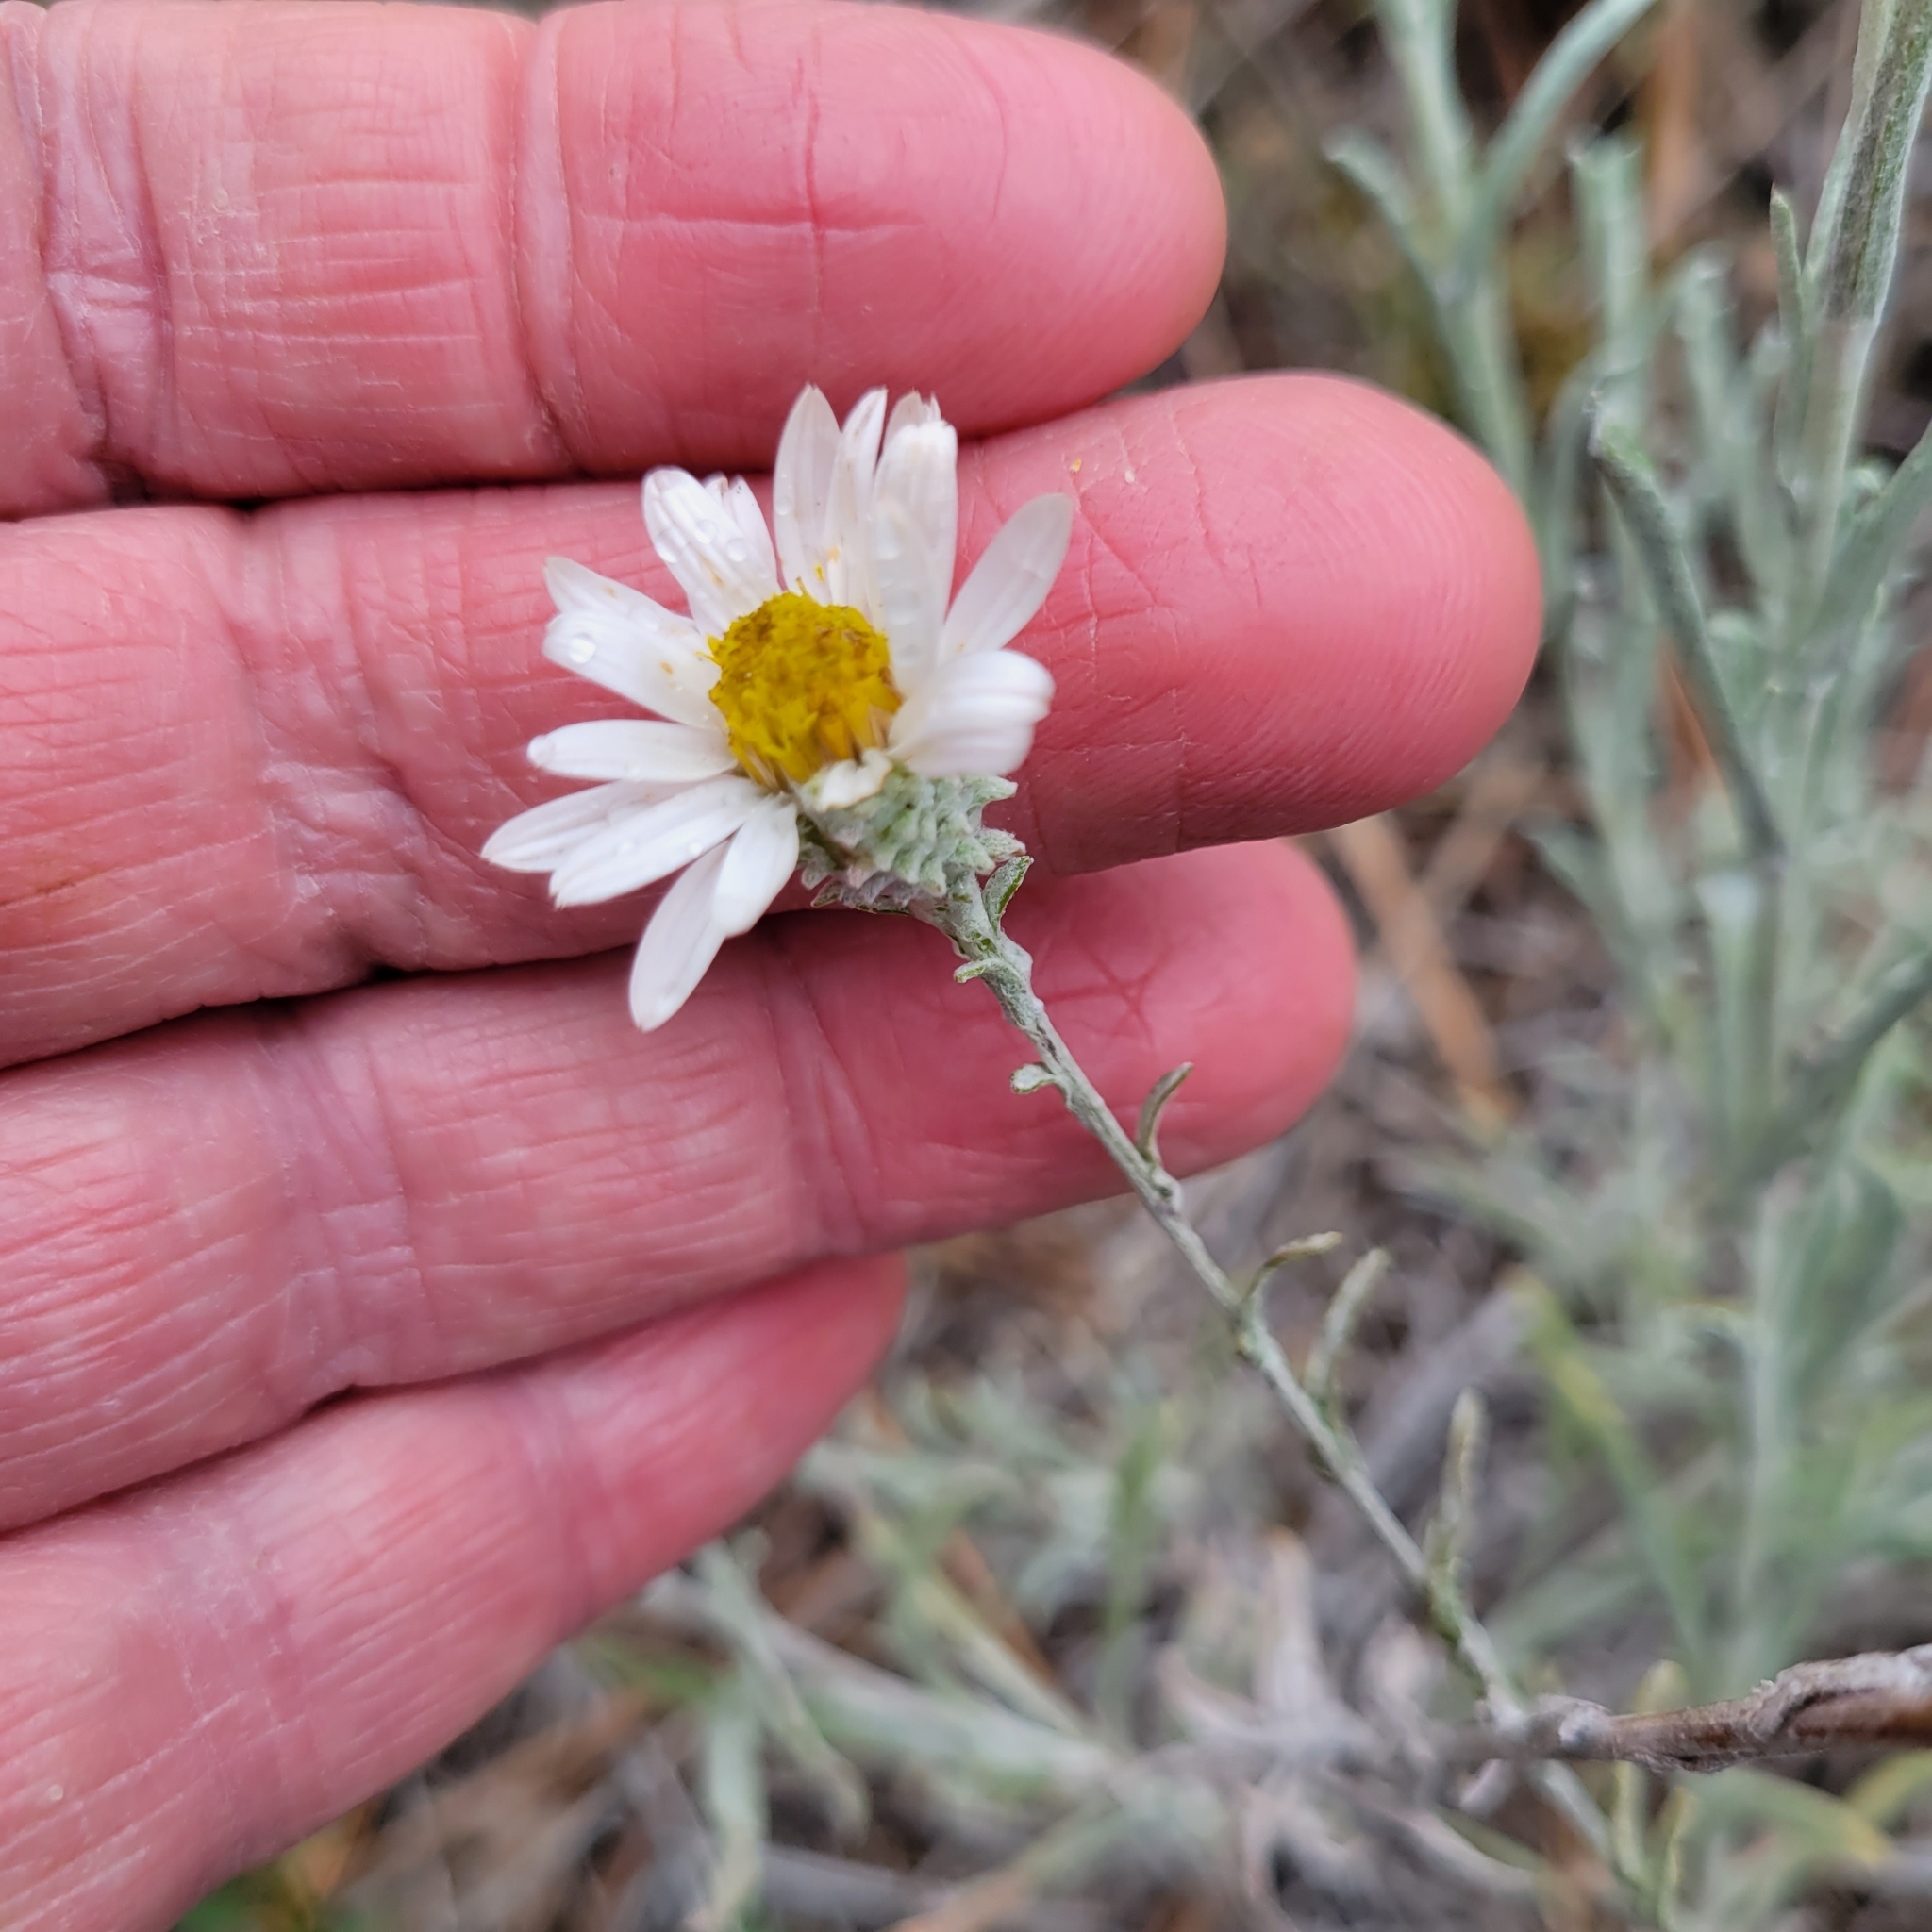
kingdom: Plantae
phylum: Tracheophyta
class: Magnoliopsida
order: Asterales
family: Asteraceae
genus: Corethrogyne
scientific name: Corethrogyne filaginifolia
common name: Sand-aster
